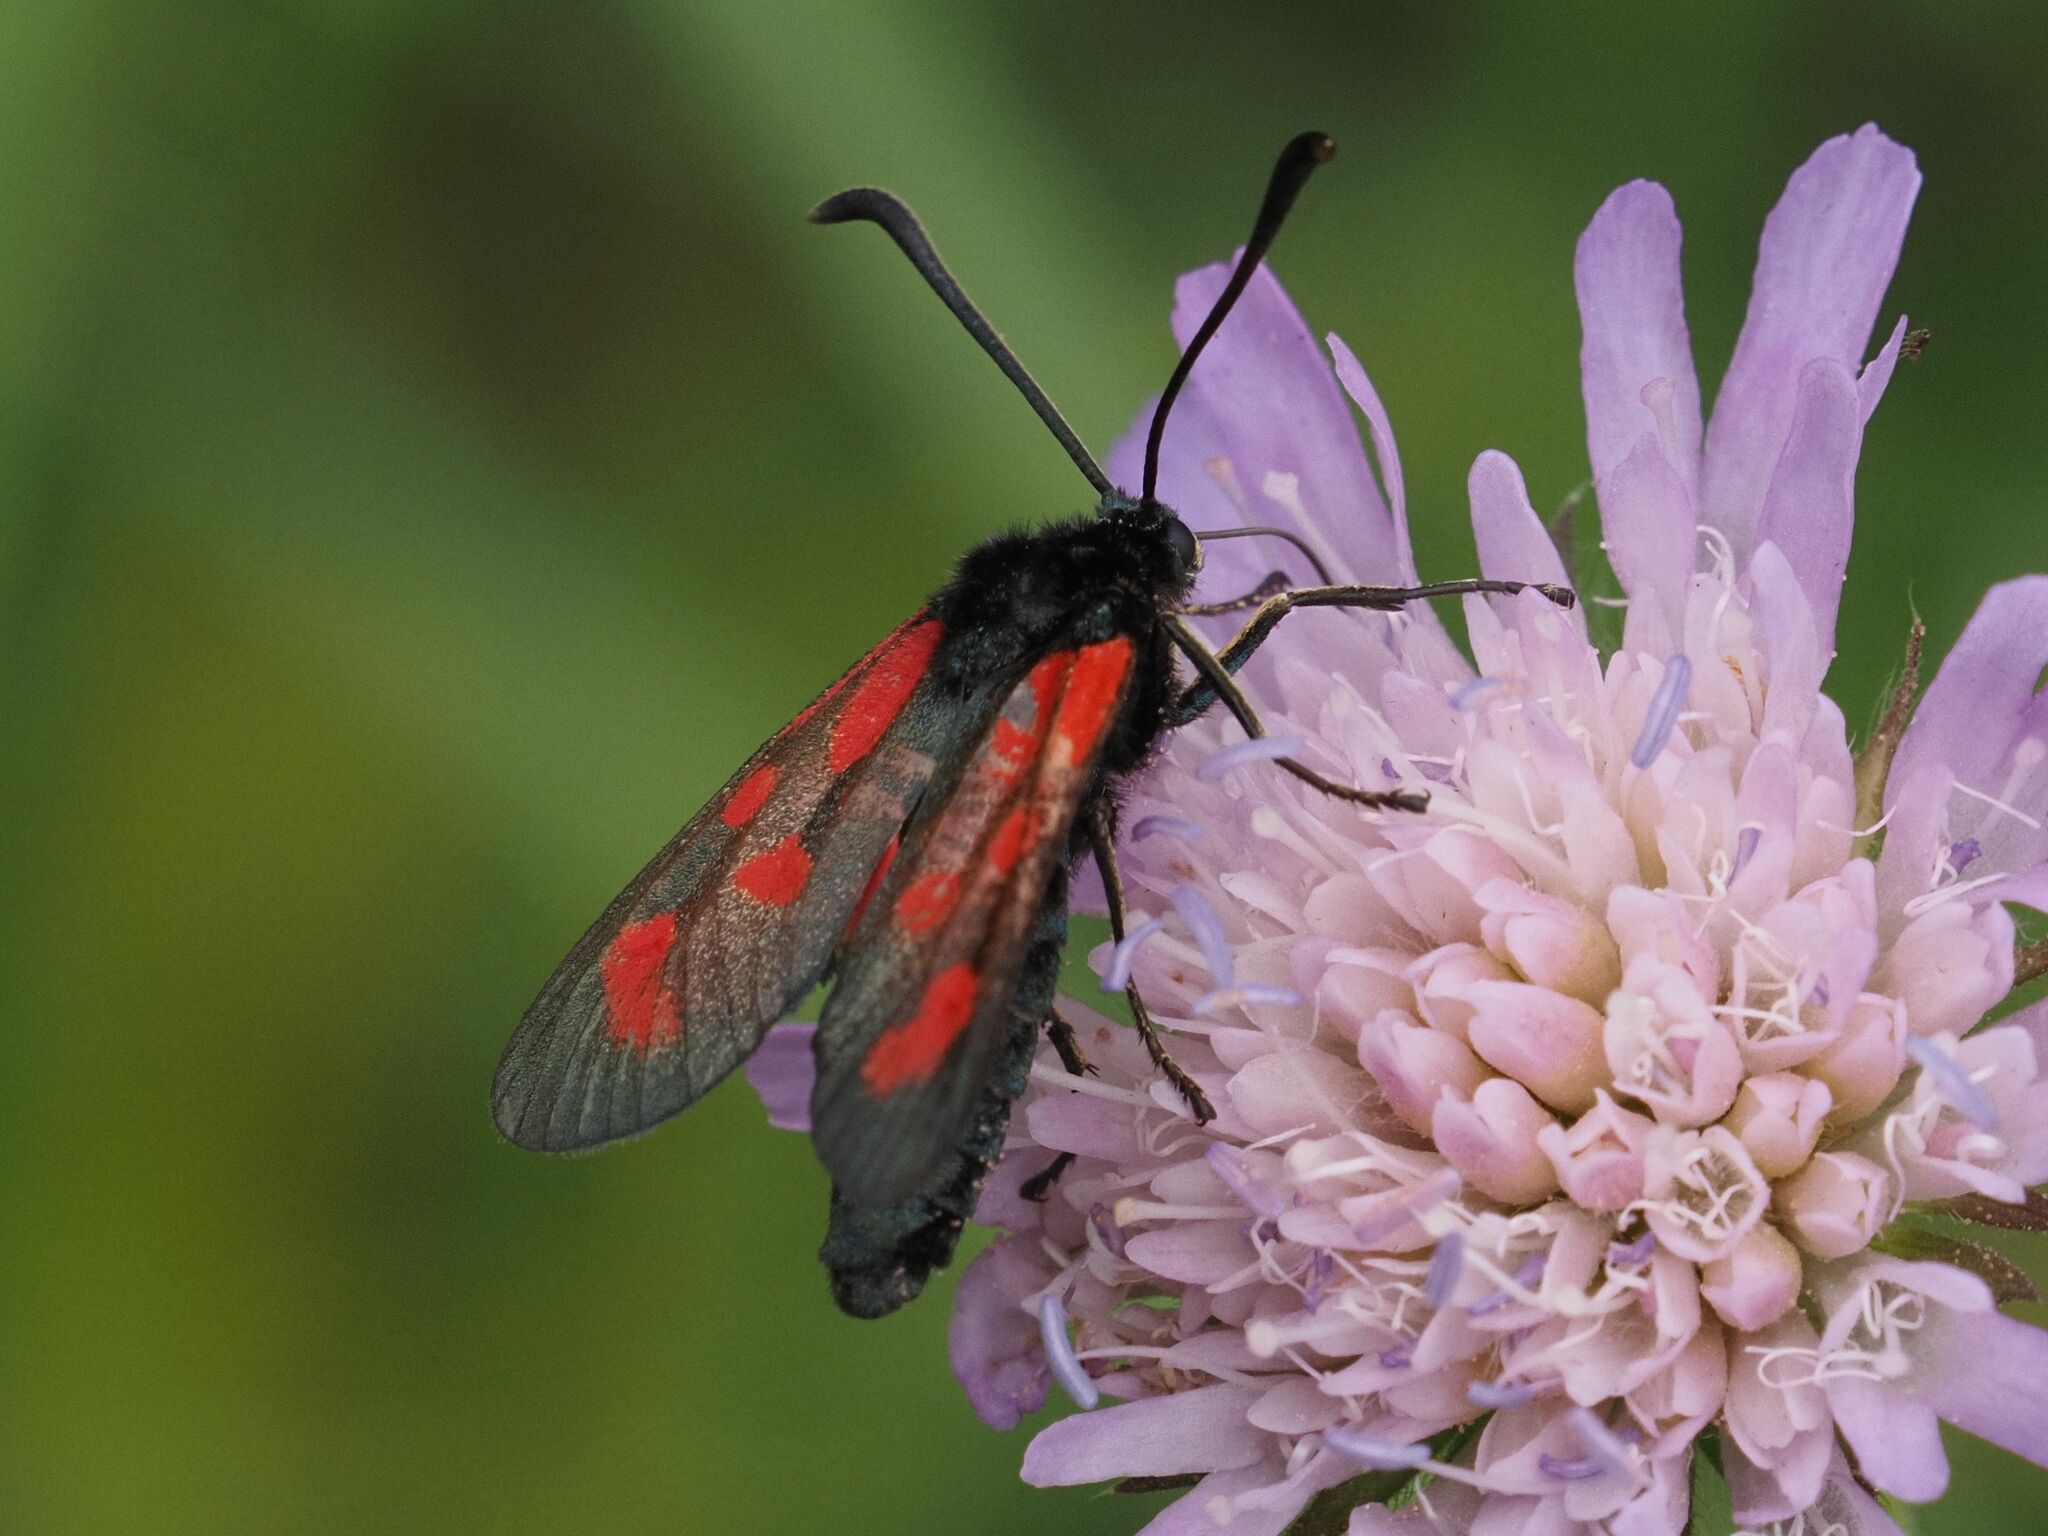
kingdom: Animalia
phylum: Arthropoda
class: Insecta
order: Lepidoptera
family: Zygaenidae
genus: Zygaena
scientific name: Zygaena loti
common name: Slender scotch burnet
